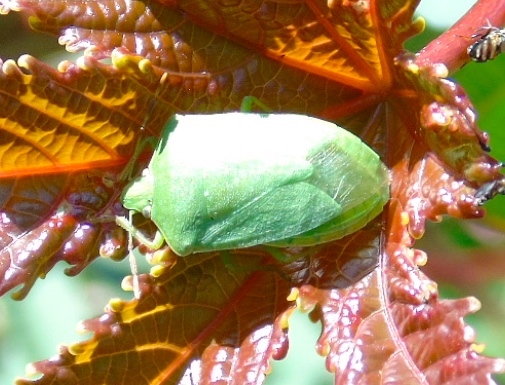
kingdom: Animalia
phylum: Arthropoda
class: Insecta
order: Hemiptera
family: Pentatomidae
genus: Nezara
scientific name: Nezara viridula
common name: Southern green stink bug
